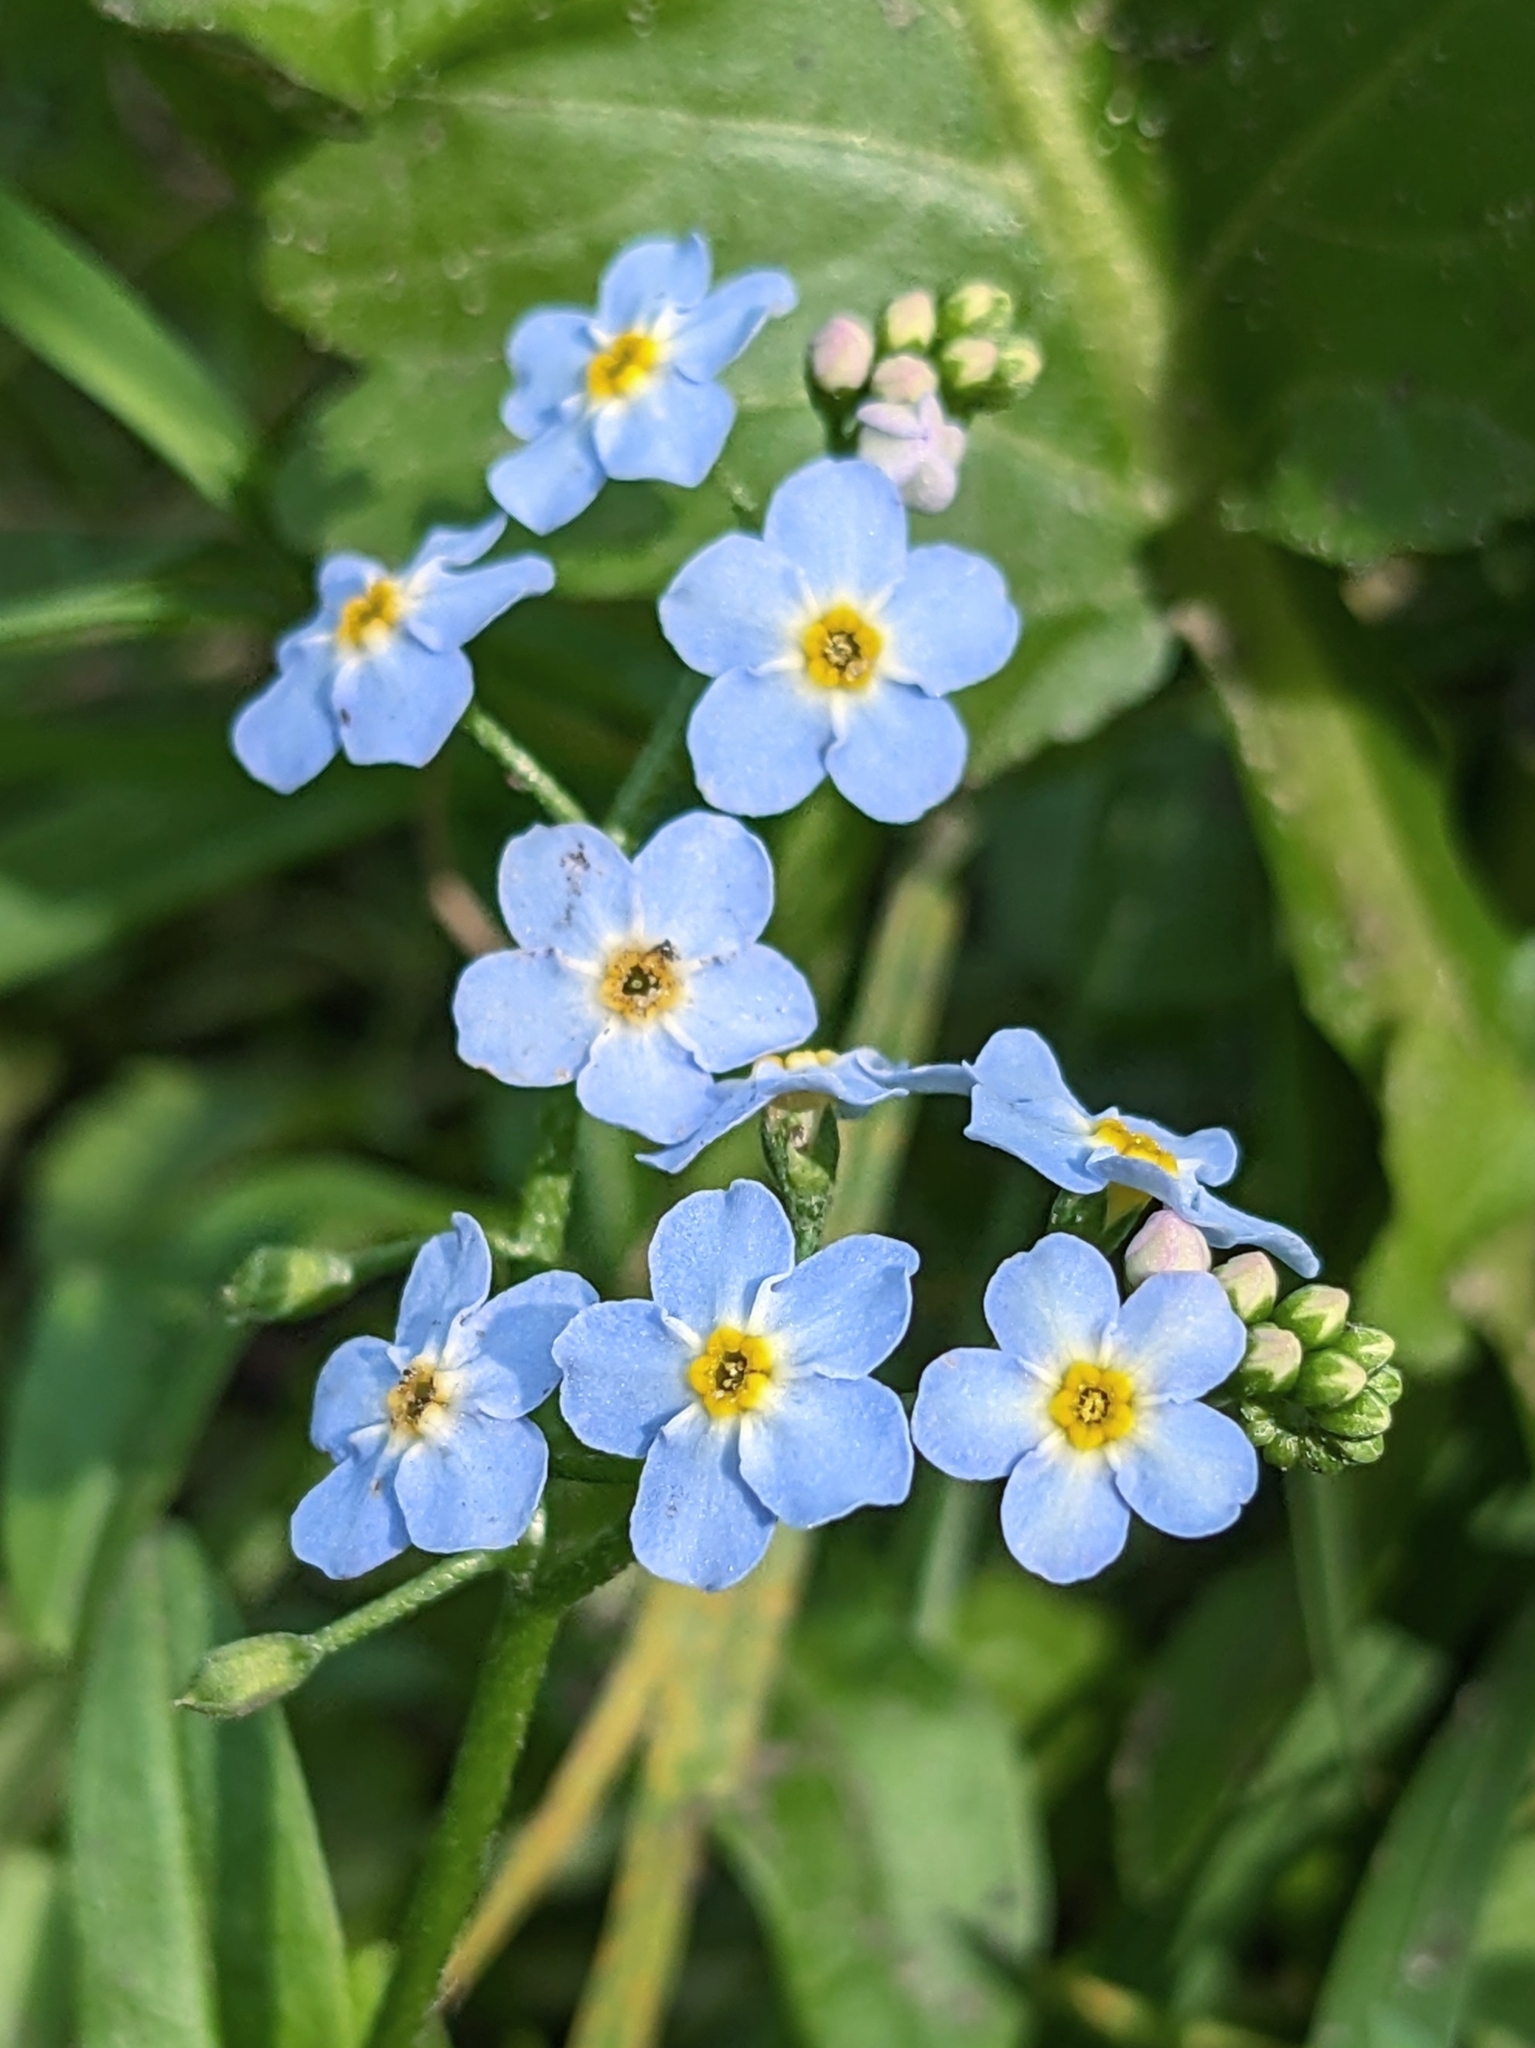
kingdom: Plantae
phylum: Tracheophyta
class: Magnoliopsida
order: Boraginales
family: Boraginaceae
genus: Myosotis
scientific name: Myosotis scorpioides
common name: Water forget-me-not
